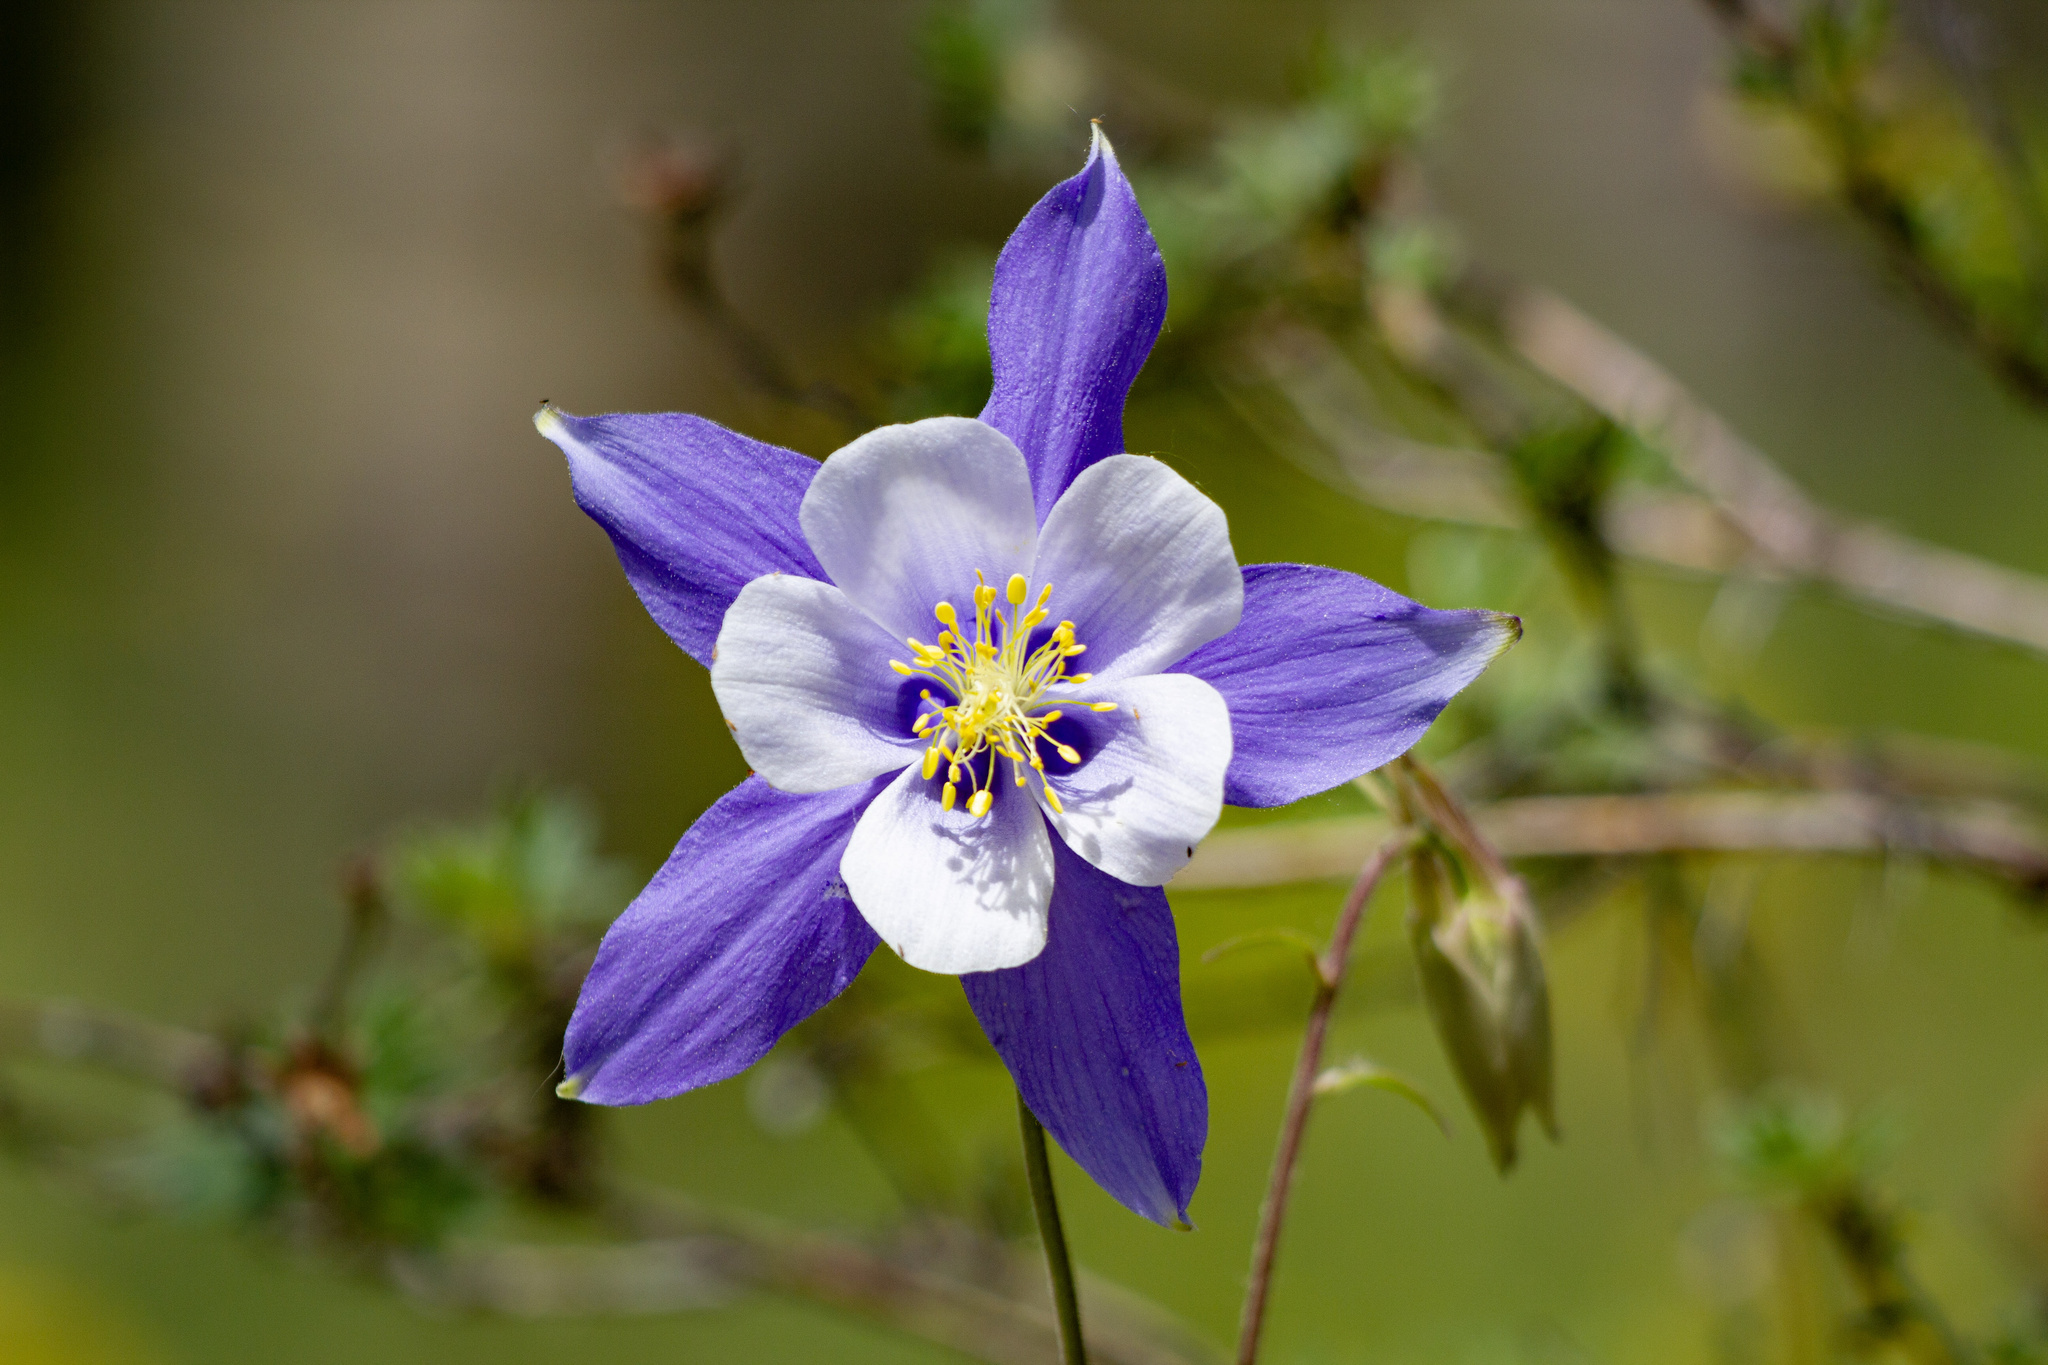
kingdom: Plantae
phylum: Tracheophyta
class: Magnoliopsida
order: Ranunculales
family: Ranunculaceae
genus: Aquilegia
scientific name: Aquilegia coerulea
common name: Rocky mountain columbine
